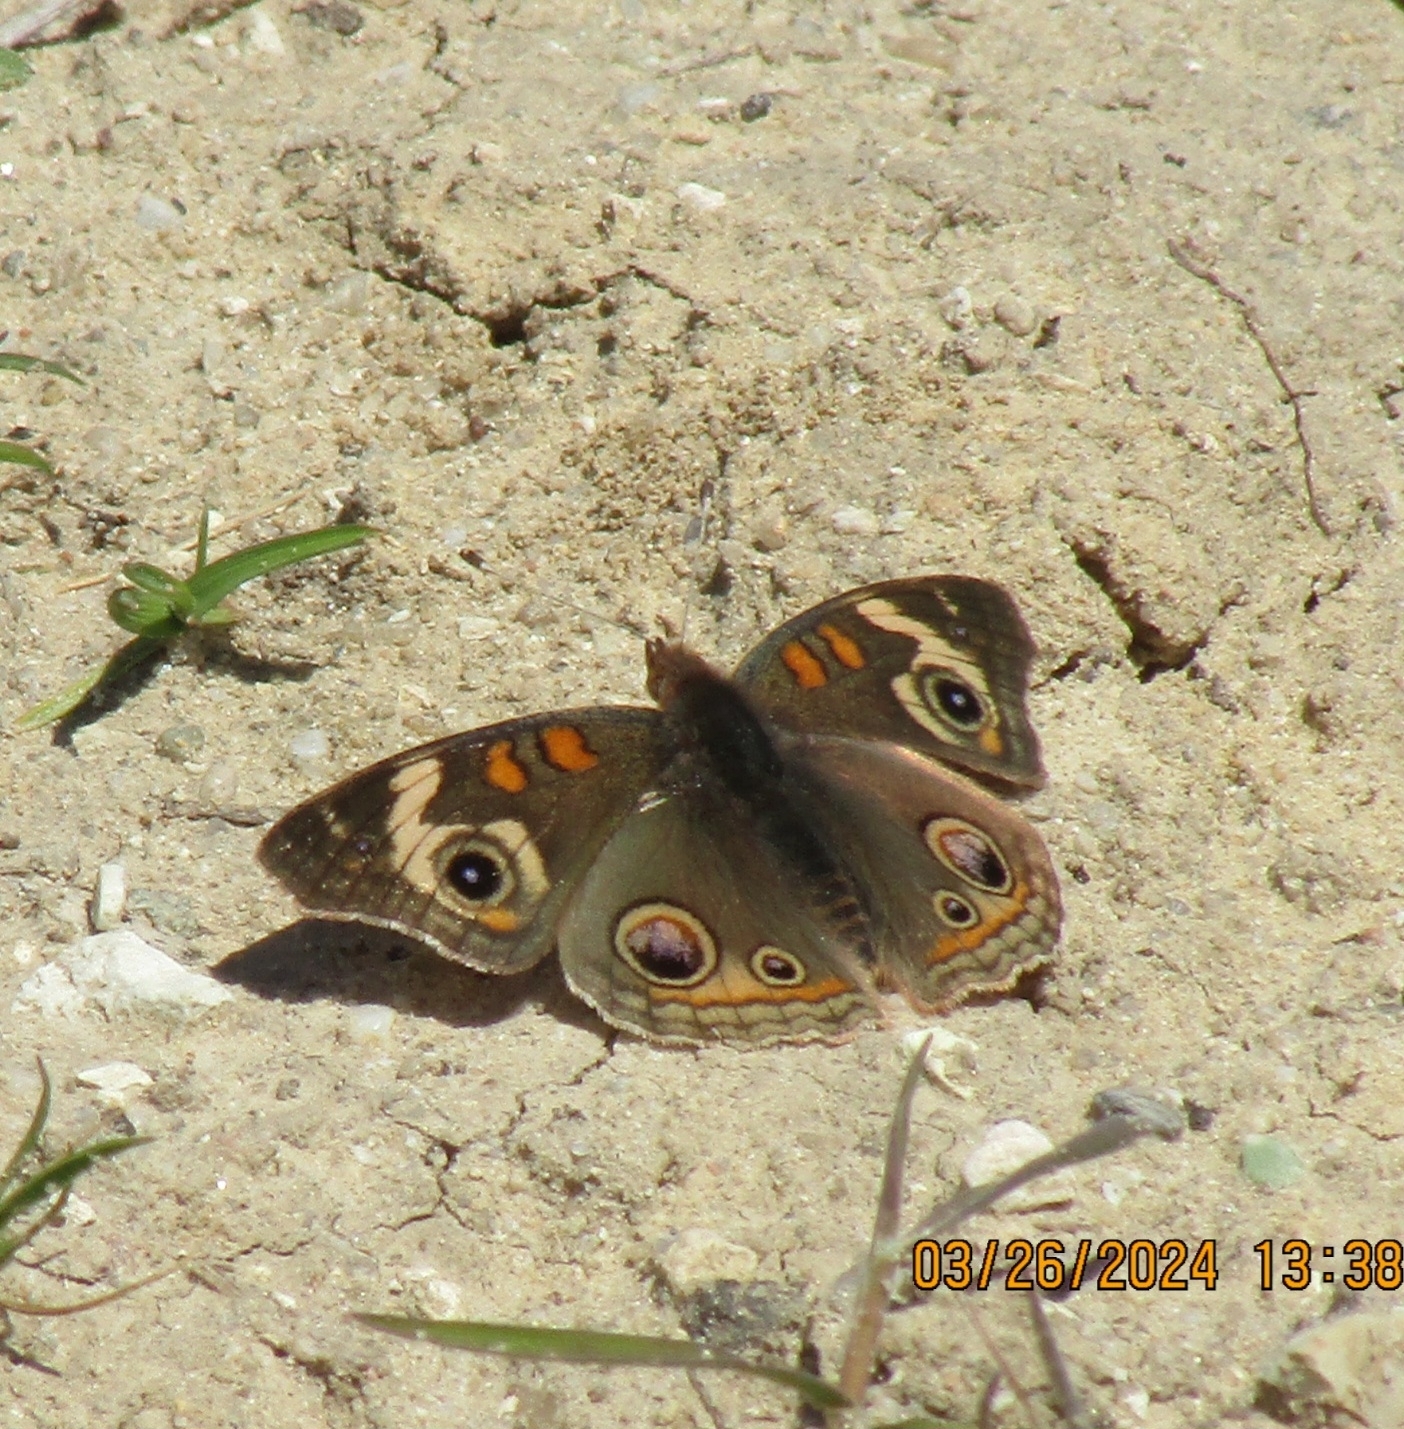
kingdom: Animalia
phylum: Arthropoda
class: Insecta
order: Lepidoptera
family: Nymphalidae
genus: Junonia
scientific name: Junonia grisea
